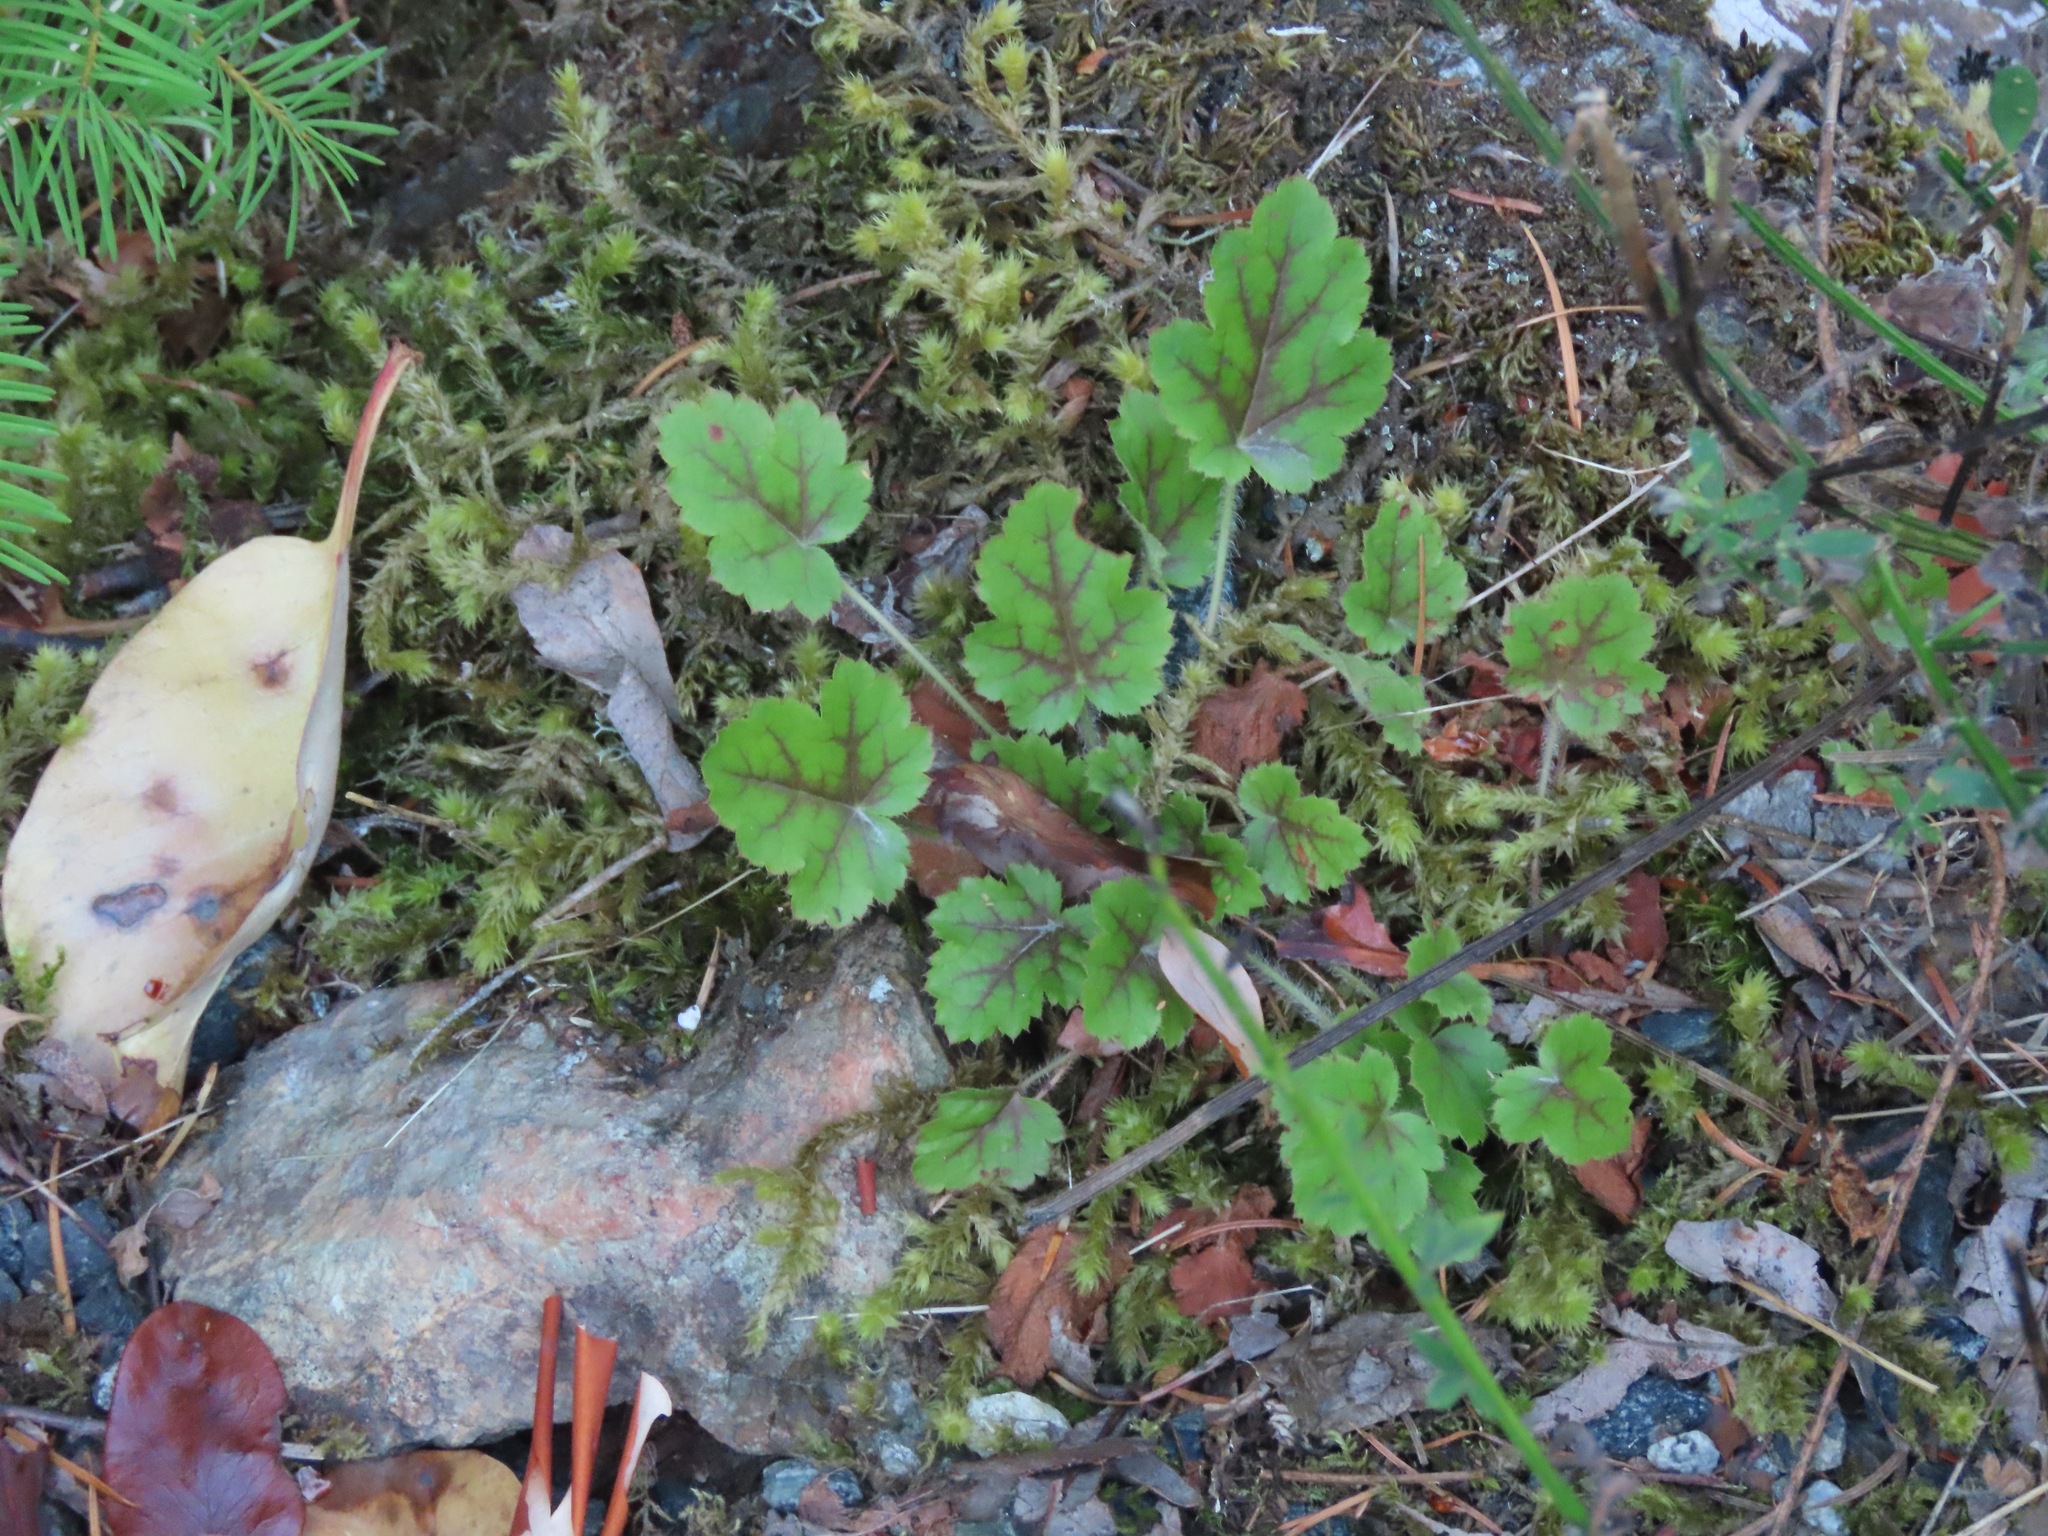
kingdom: Plantae
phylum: Tracheophyta
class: Magnoliopsida
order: Saxifragales
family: Saxifragaceae
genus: Heuchera
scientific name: Heuchera micrantha
